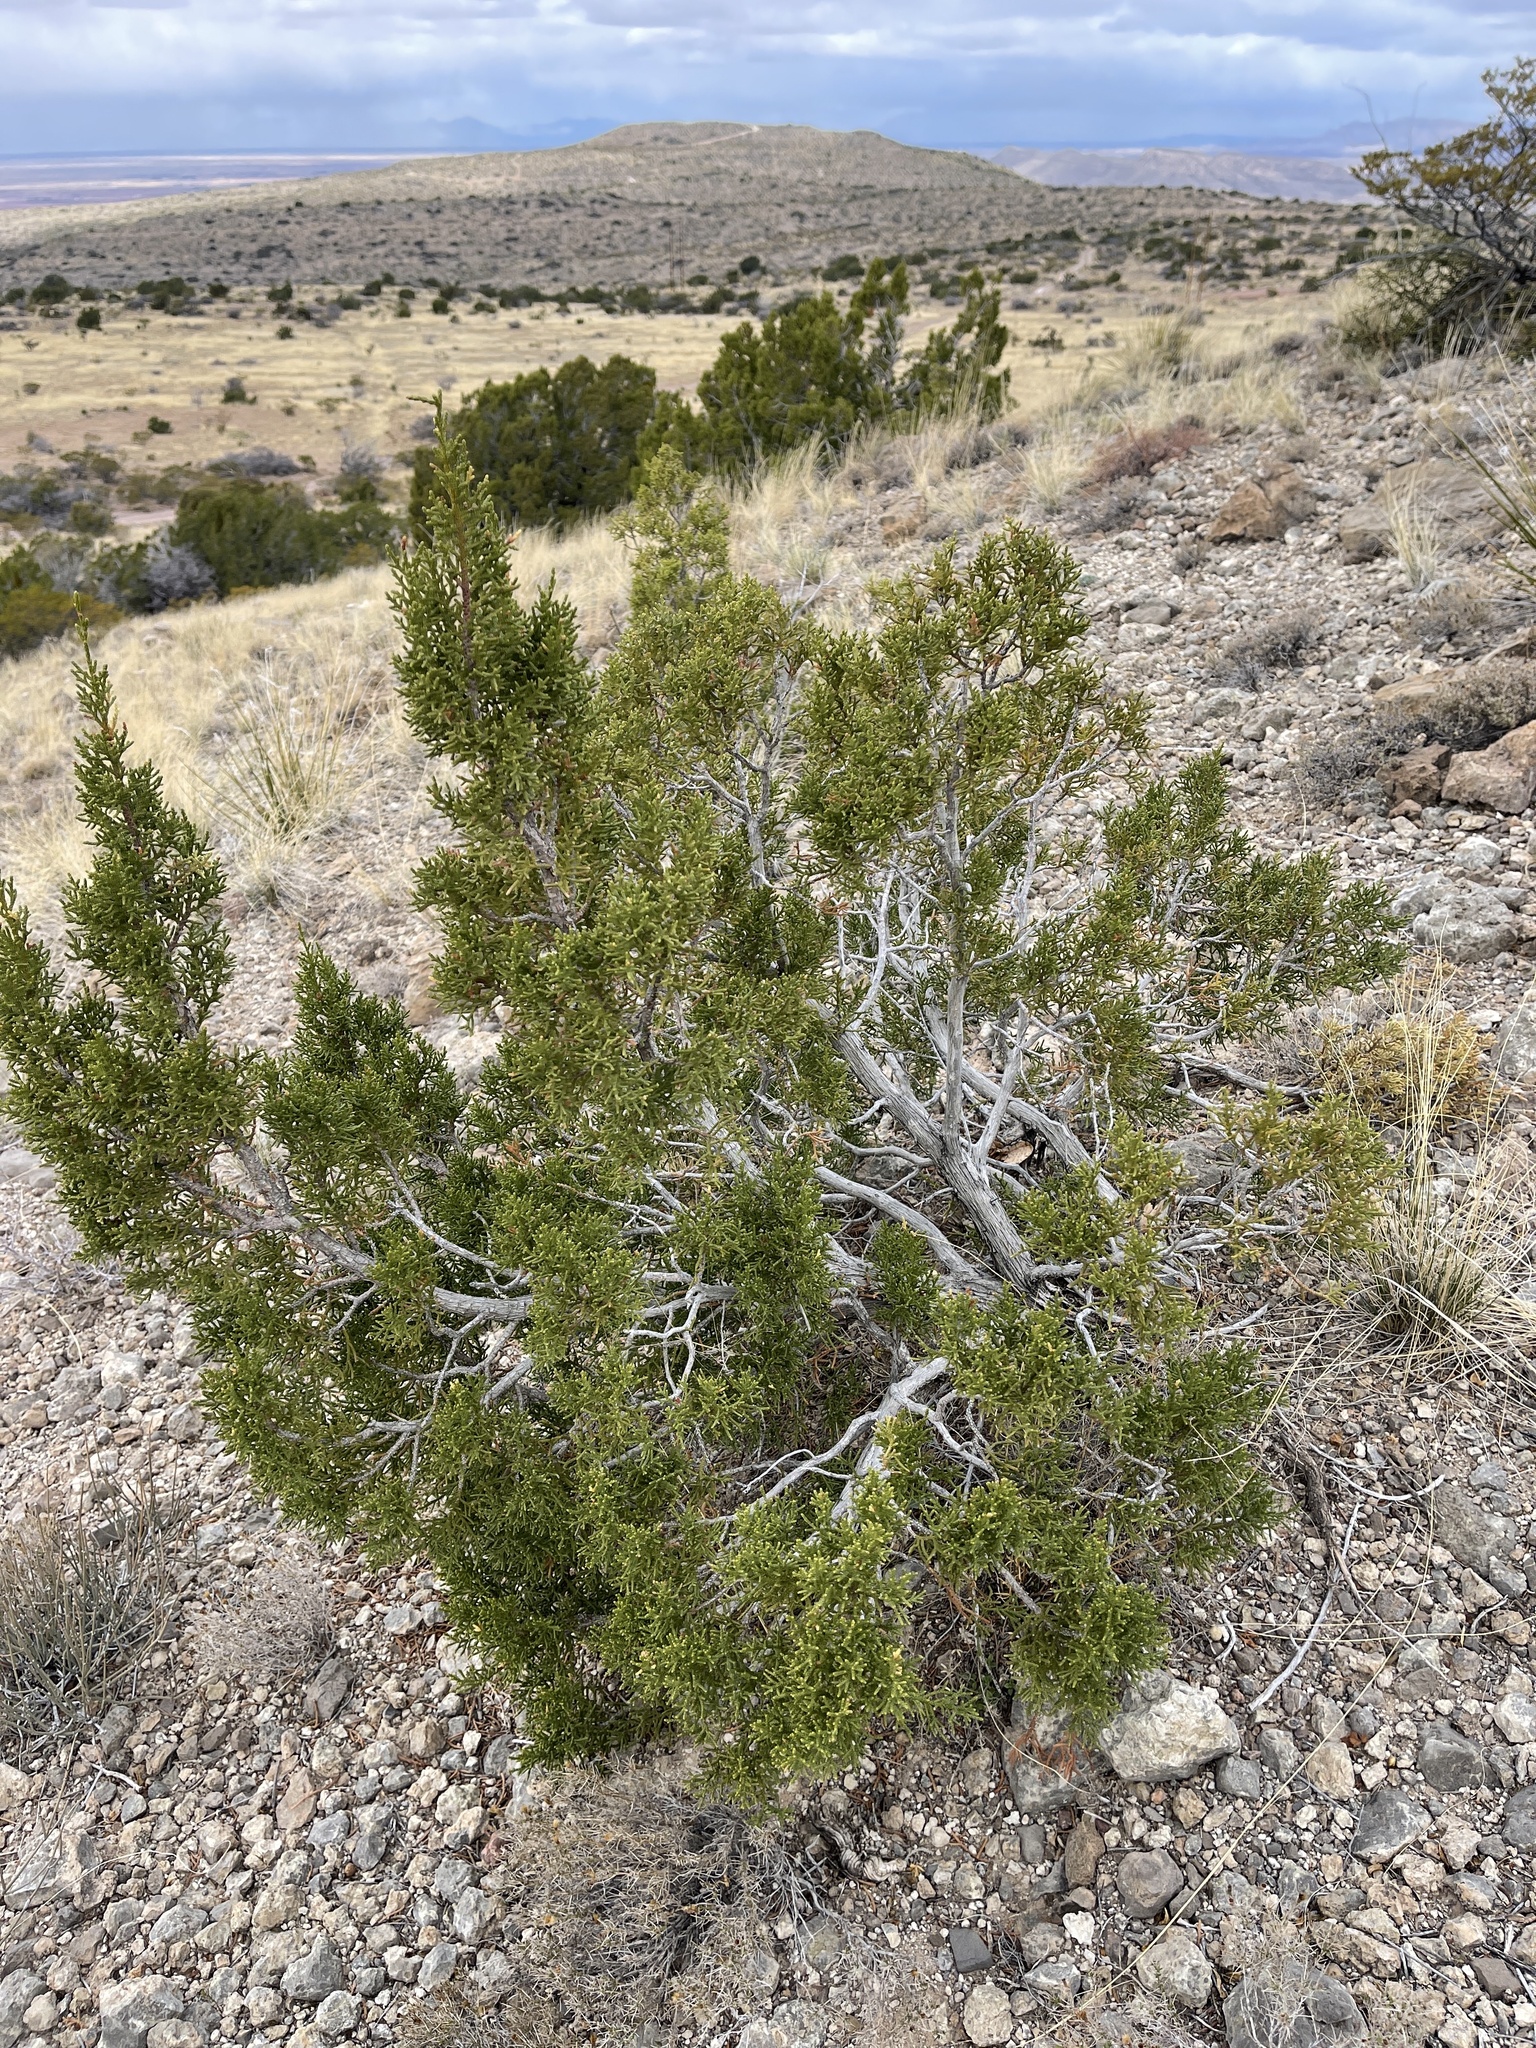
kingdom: Plantae
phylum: Tracheophyta
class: Pinopsida
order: Pinales
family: Cupressaceae
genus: Juniperus
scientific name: Juniperus monosperma
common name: One-seed juniper
